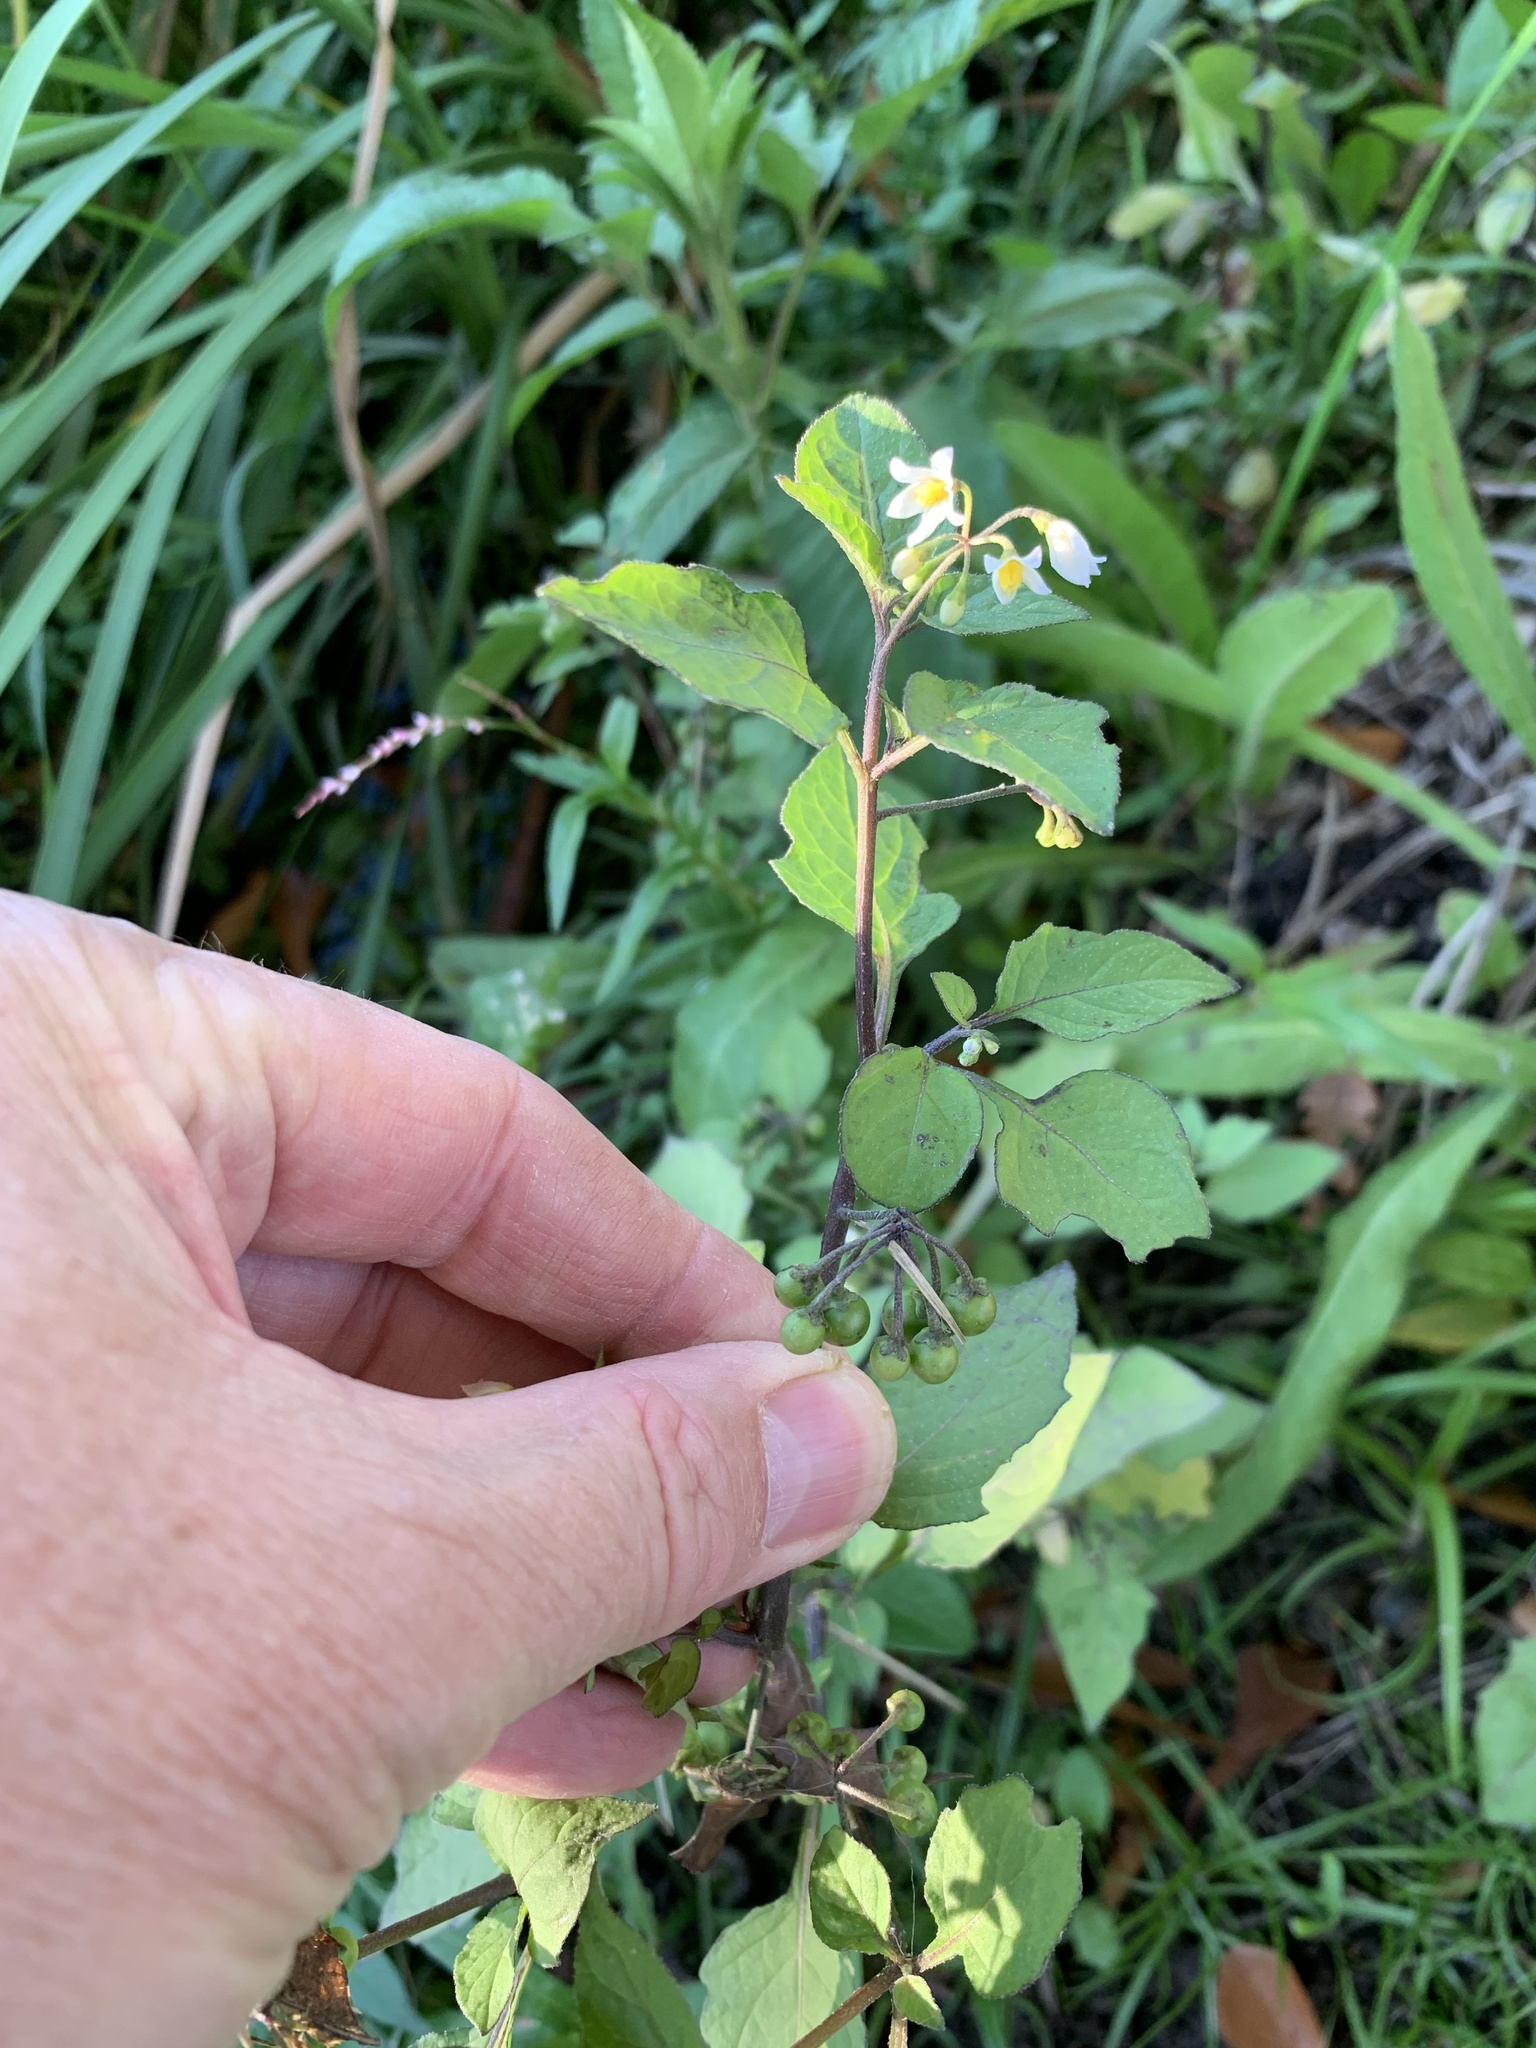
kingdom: Plantae
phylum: Tracheophyta
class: Magnoliopsida
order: Solanales
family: Solanaceae
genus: Solanum
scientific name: Solanum nigrum
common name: Black nightshade
